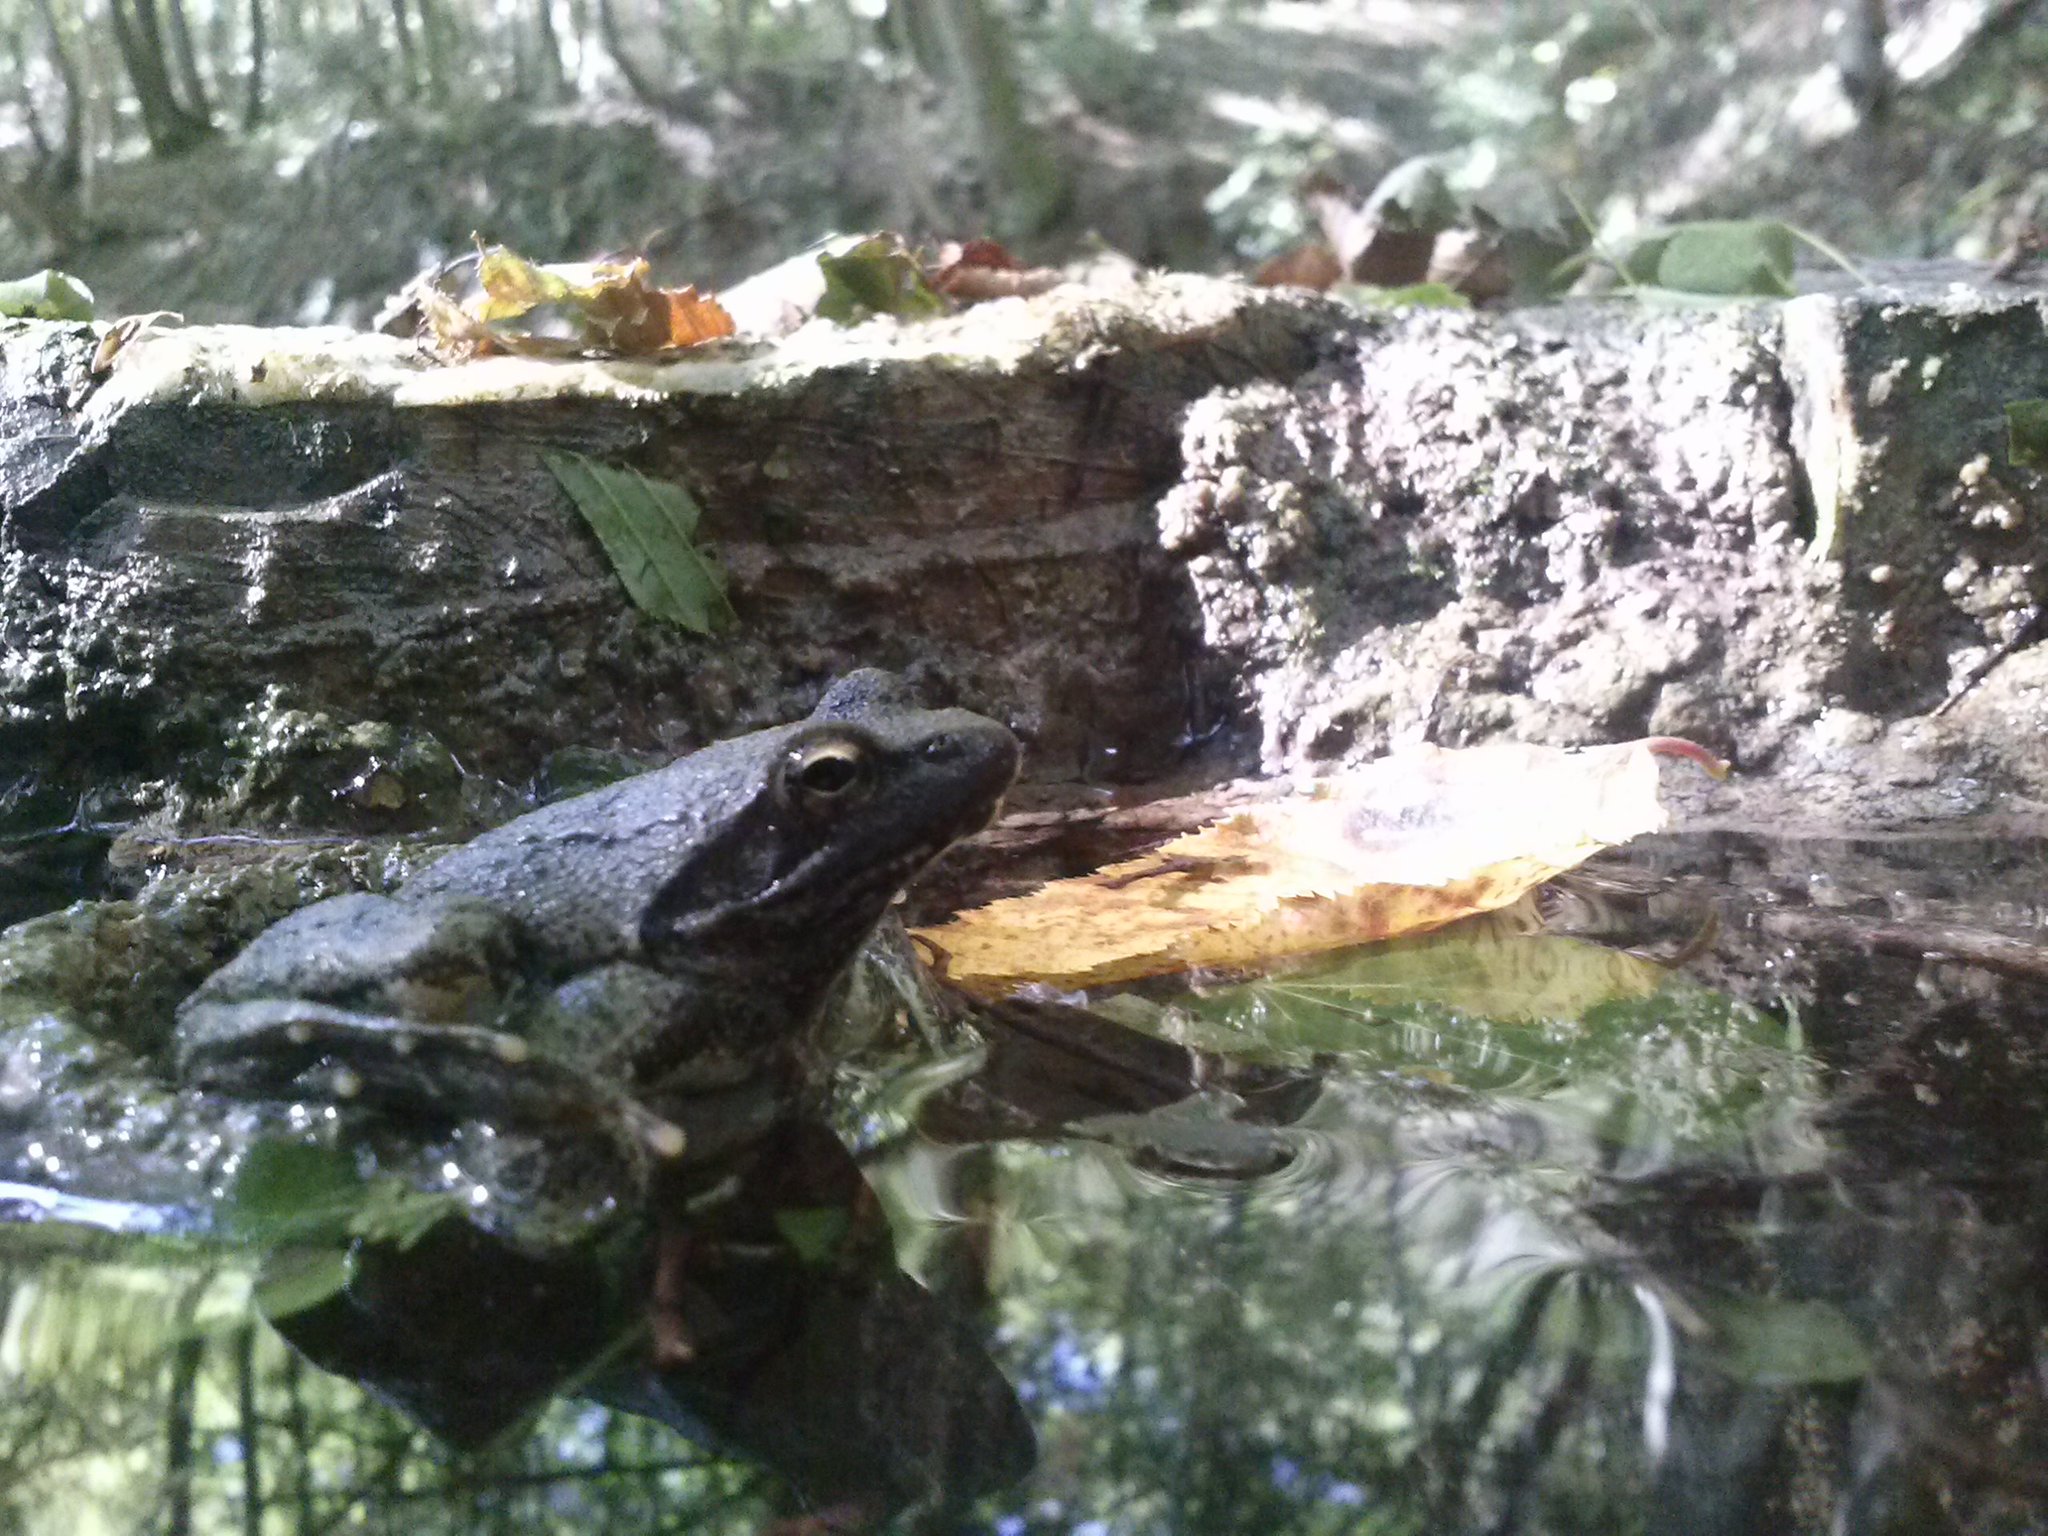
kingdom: Animalia
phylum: Chordata
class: Amphibia
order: Anura
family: Ranidae
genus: Rana
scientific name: Rana italica
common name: Italian stream frog
